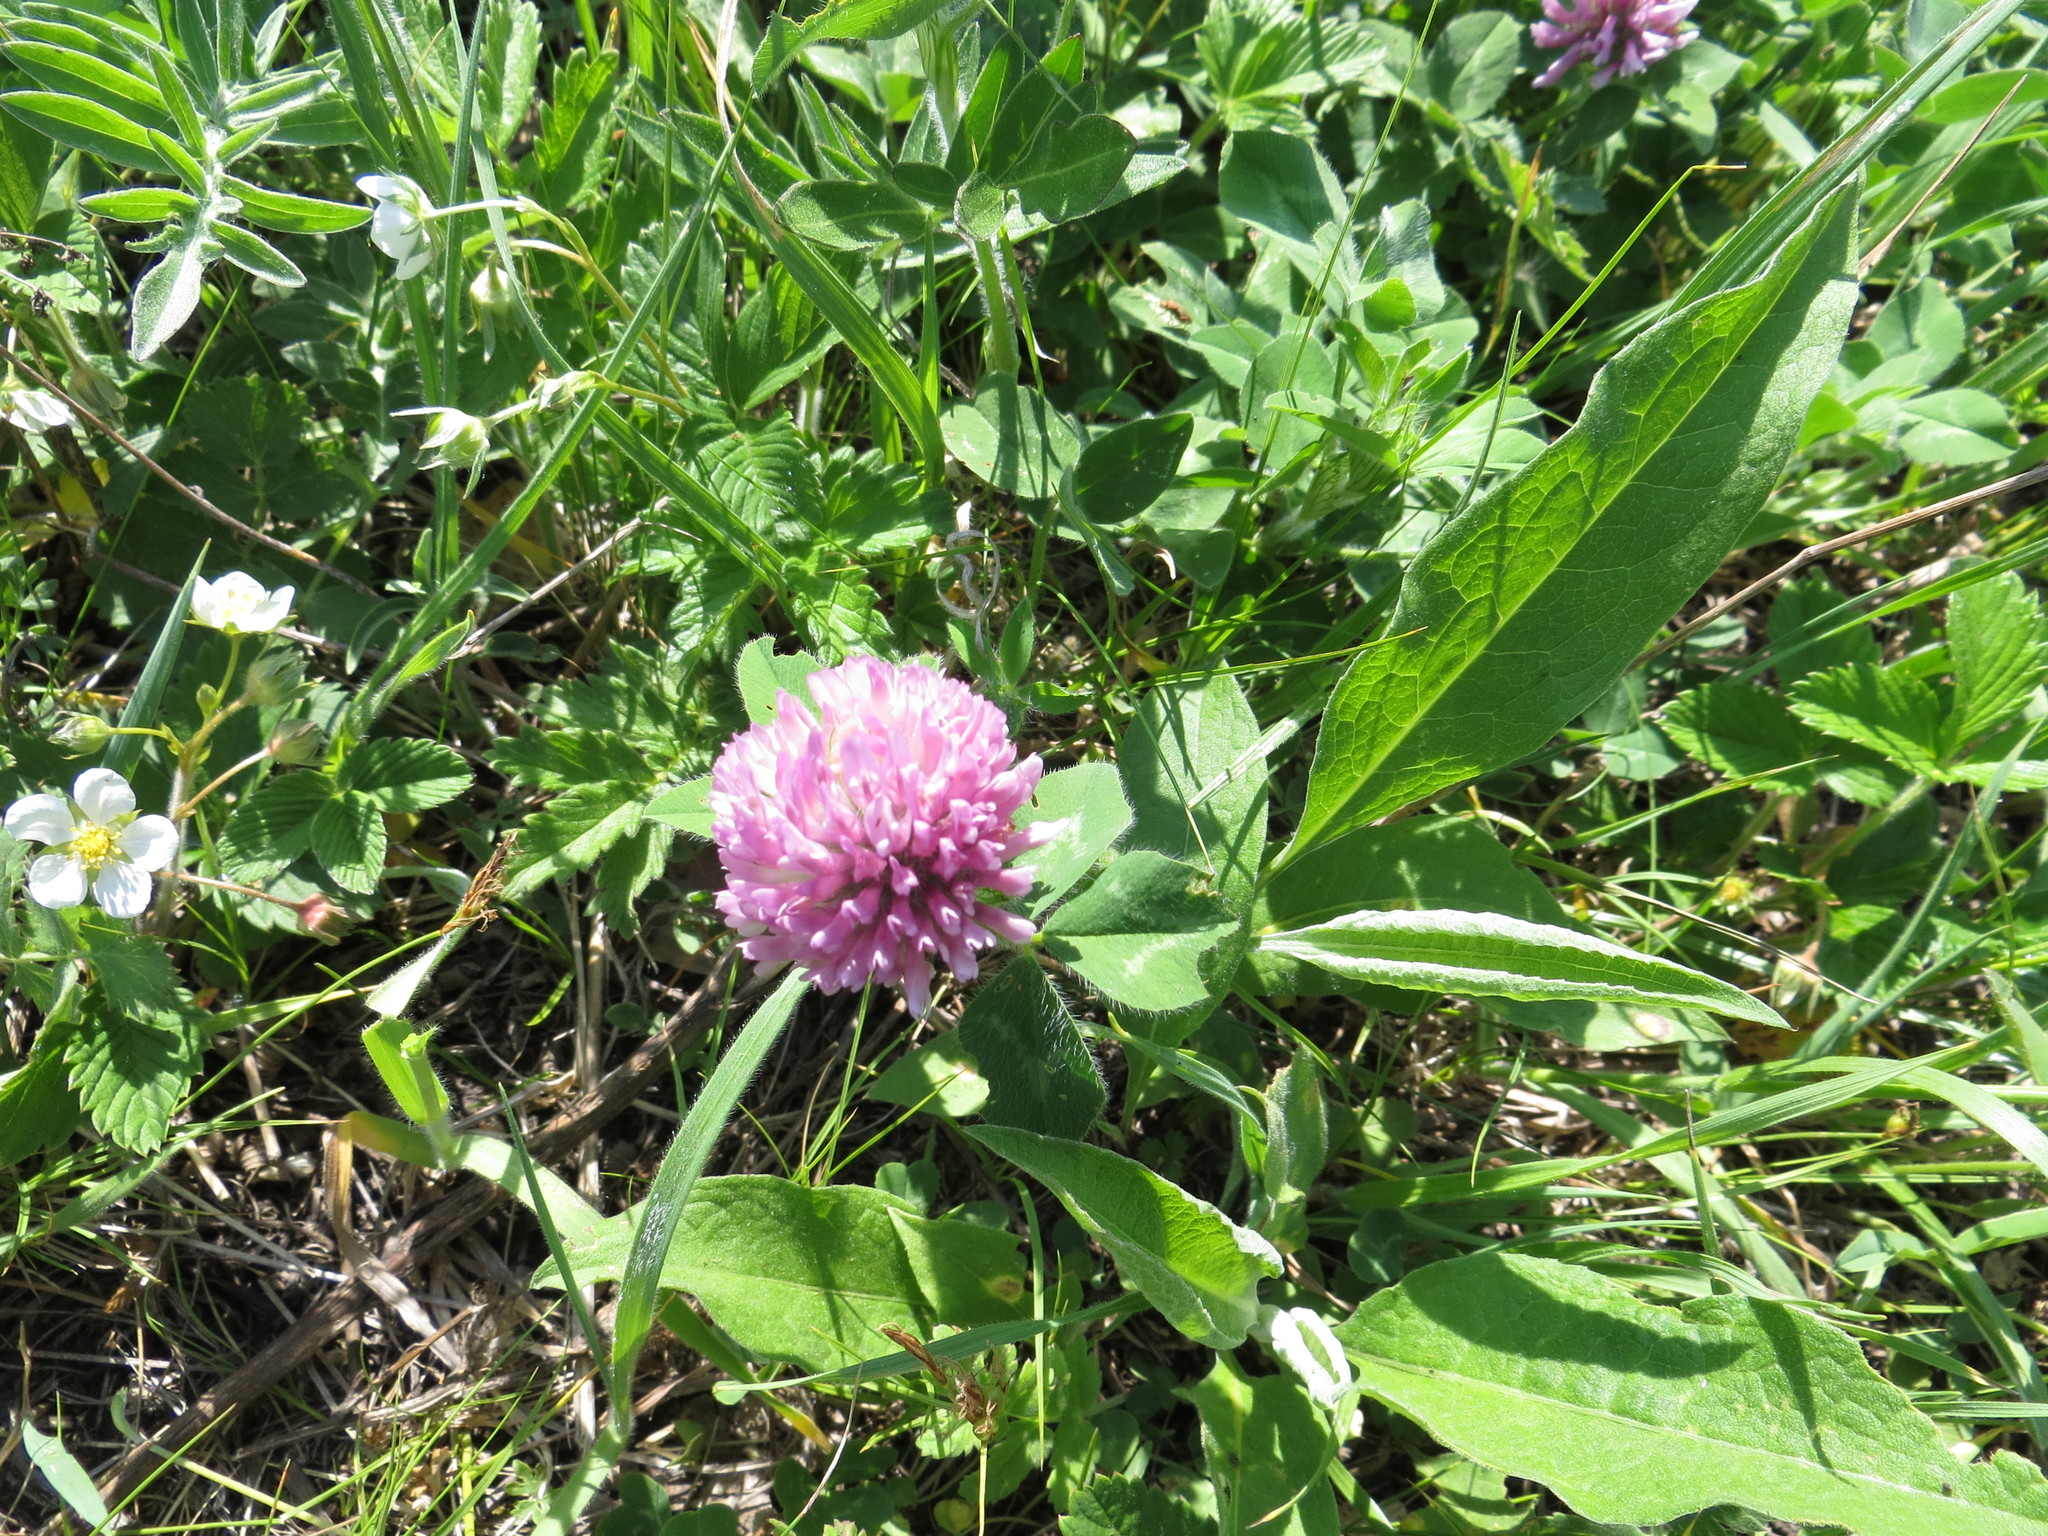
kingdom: Plantae
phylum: Tracheophyta
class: Magnoliopsida
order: Fabales
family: Fabaceae
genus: Trifolium
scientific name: Trifolium pratense
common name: Red clover
